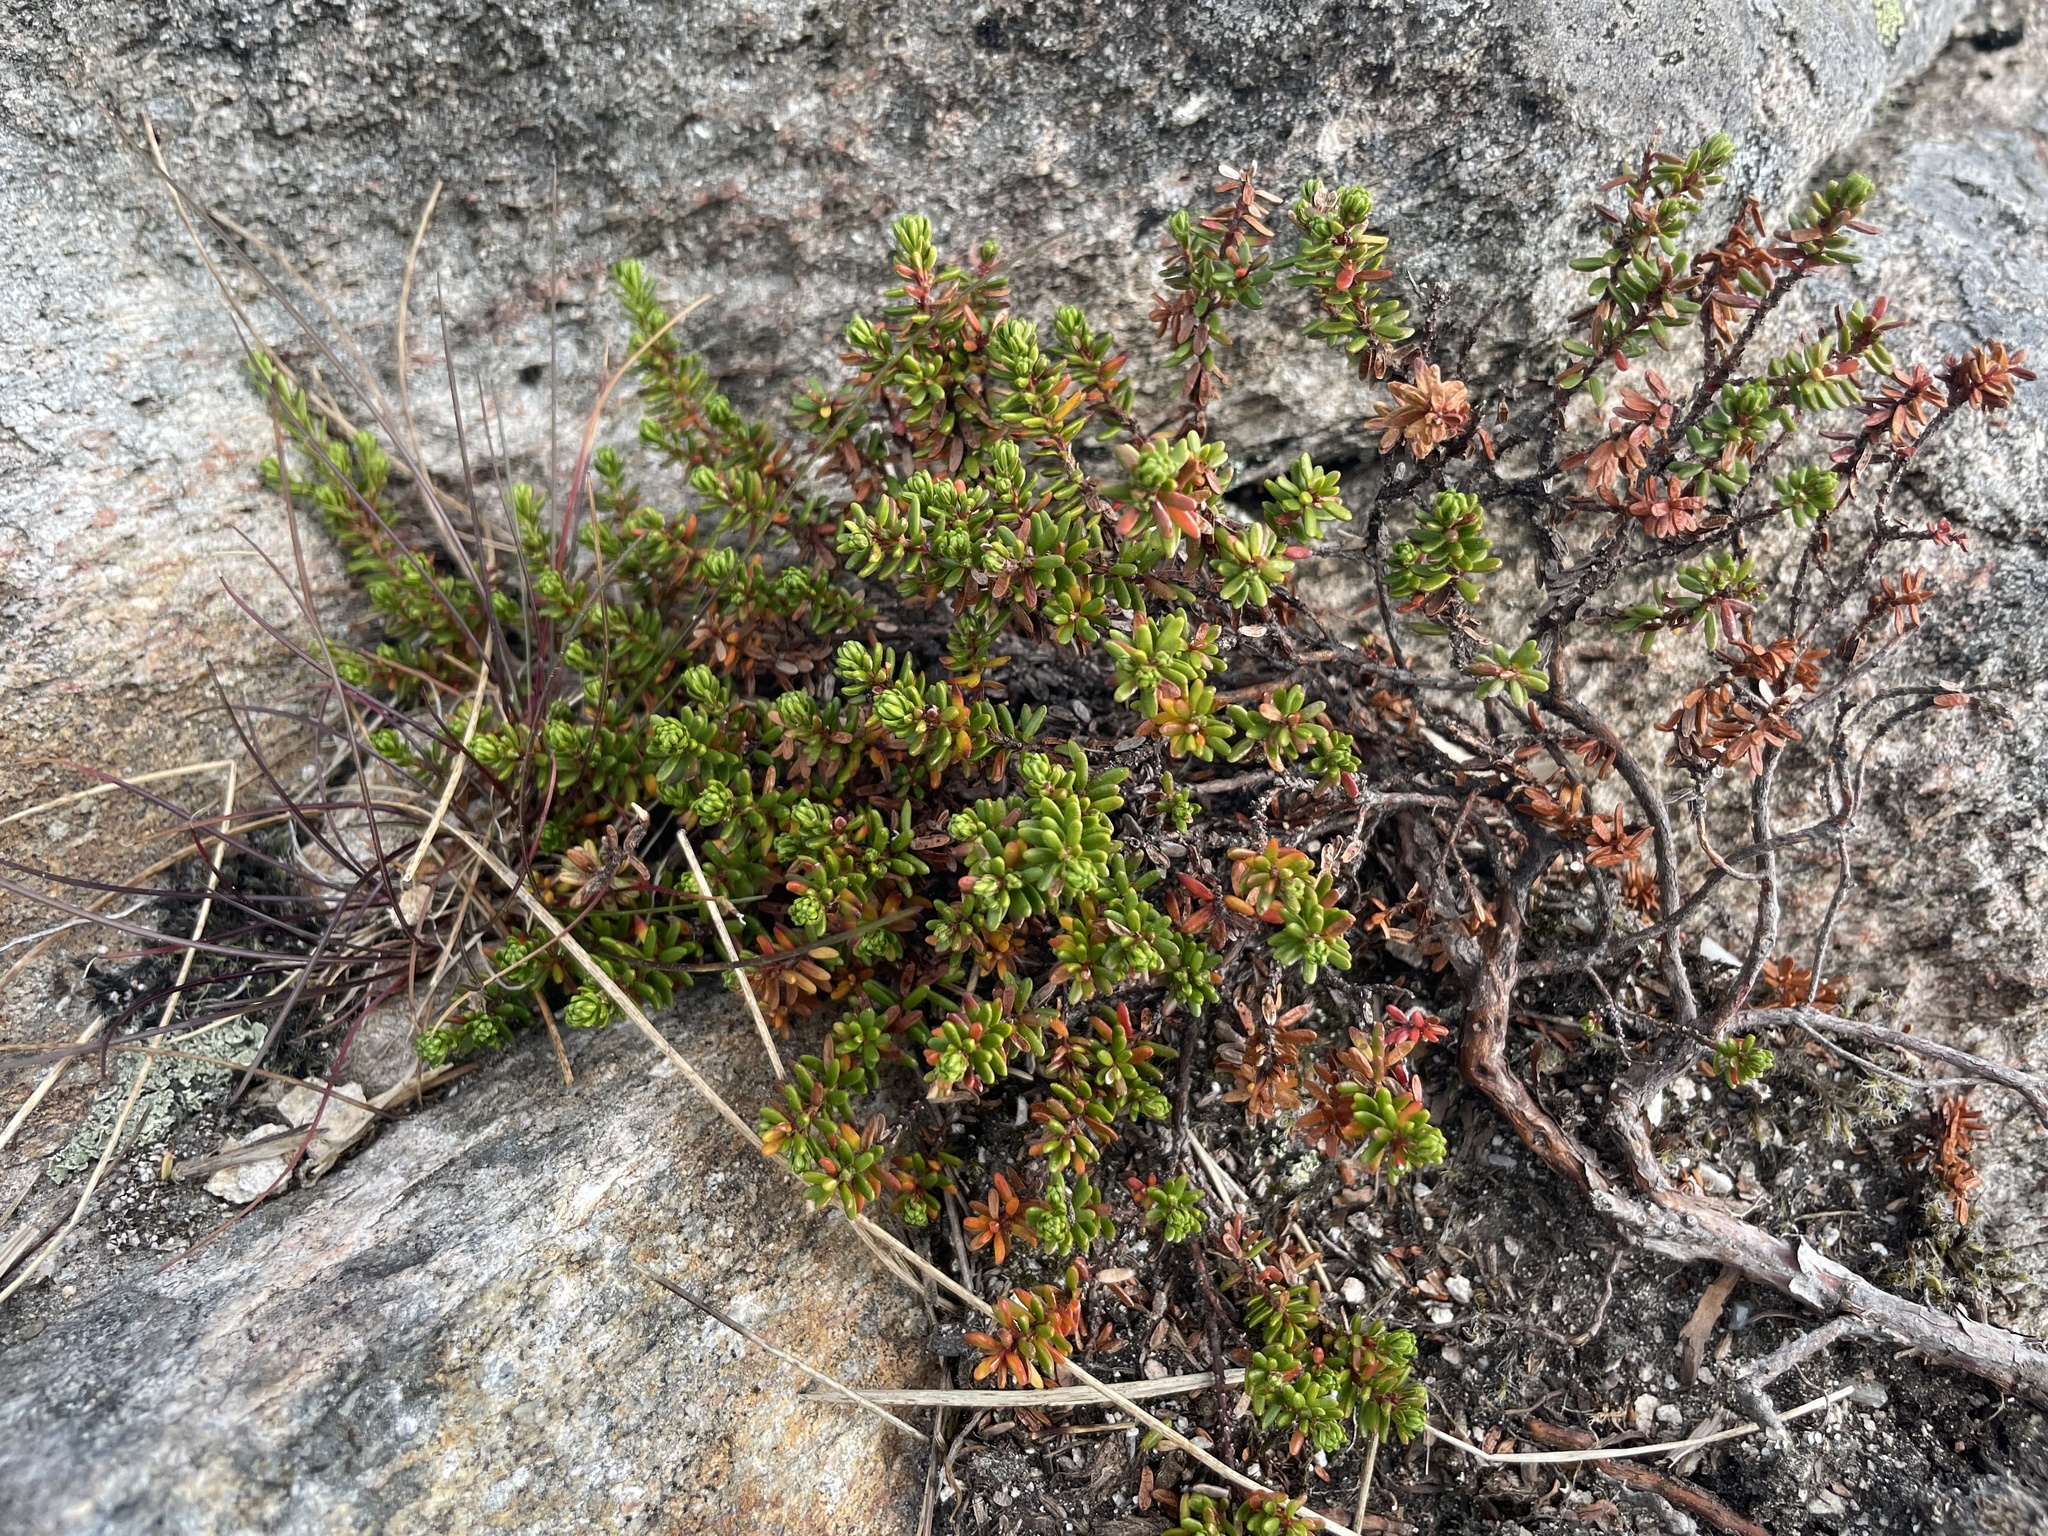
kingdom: Plantae
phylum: Tracheophyta
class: Magnoliopsida
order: Ericales
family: Ericaceae
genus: Empetrum
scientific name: Empetrum nigrum
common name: Black crowberry
